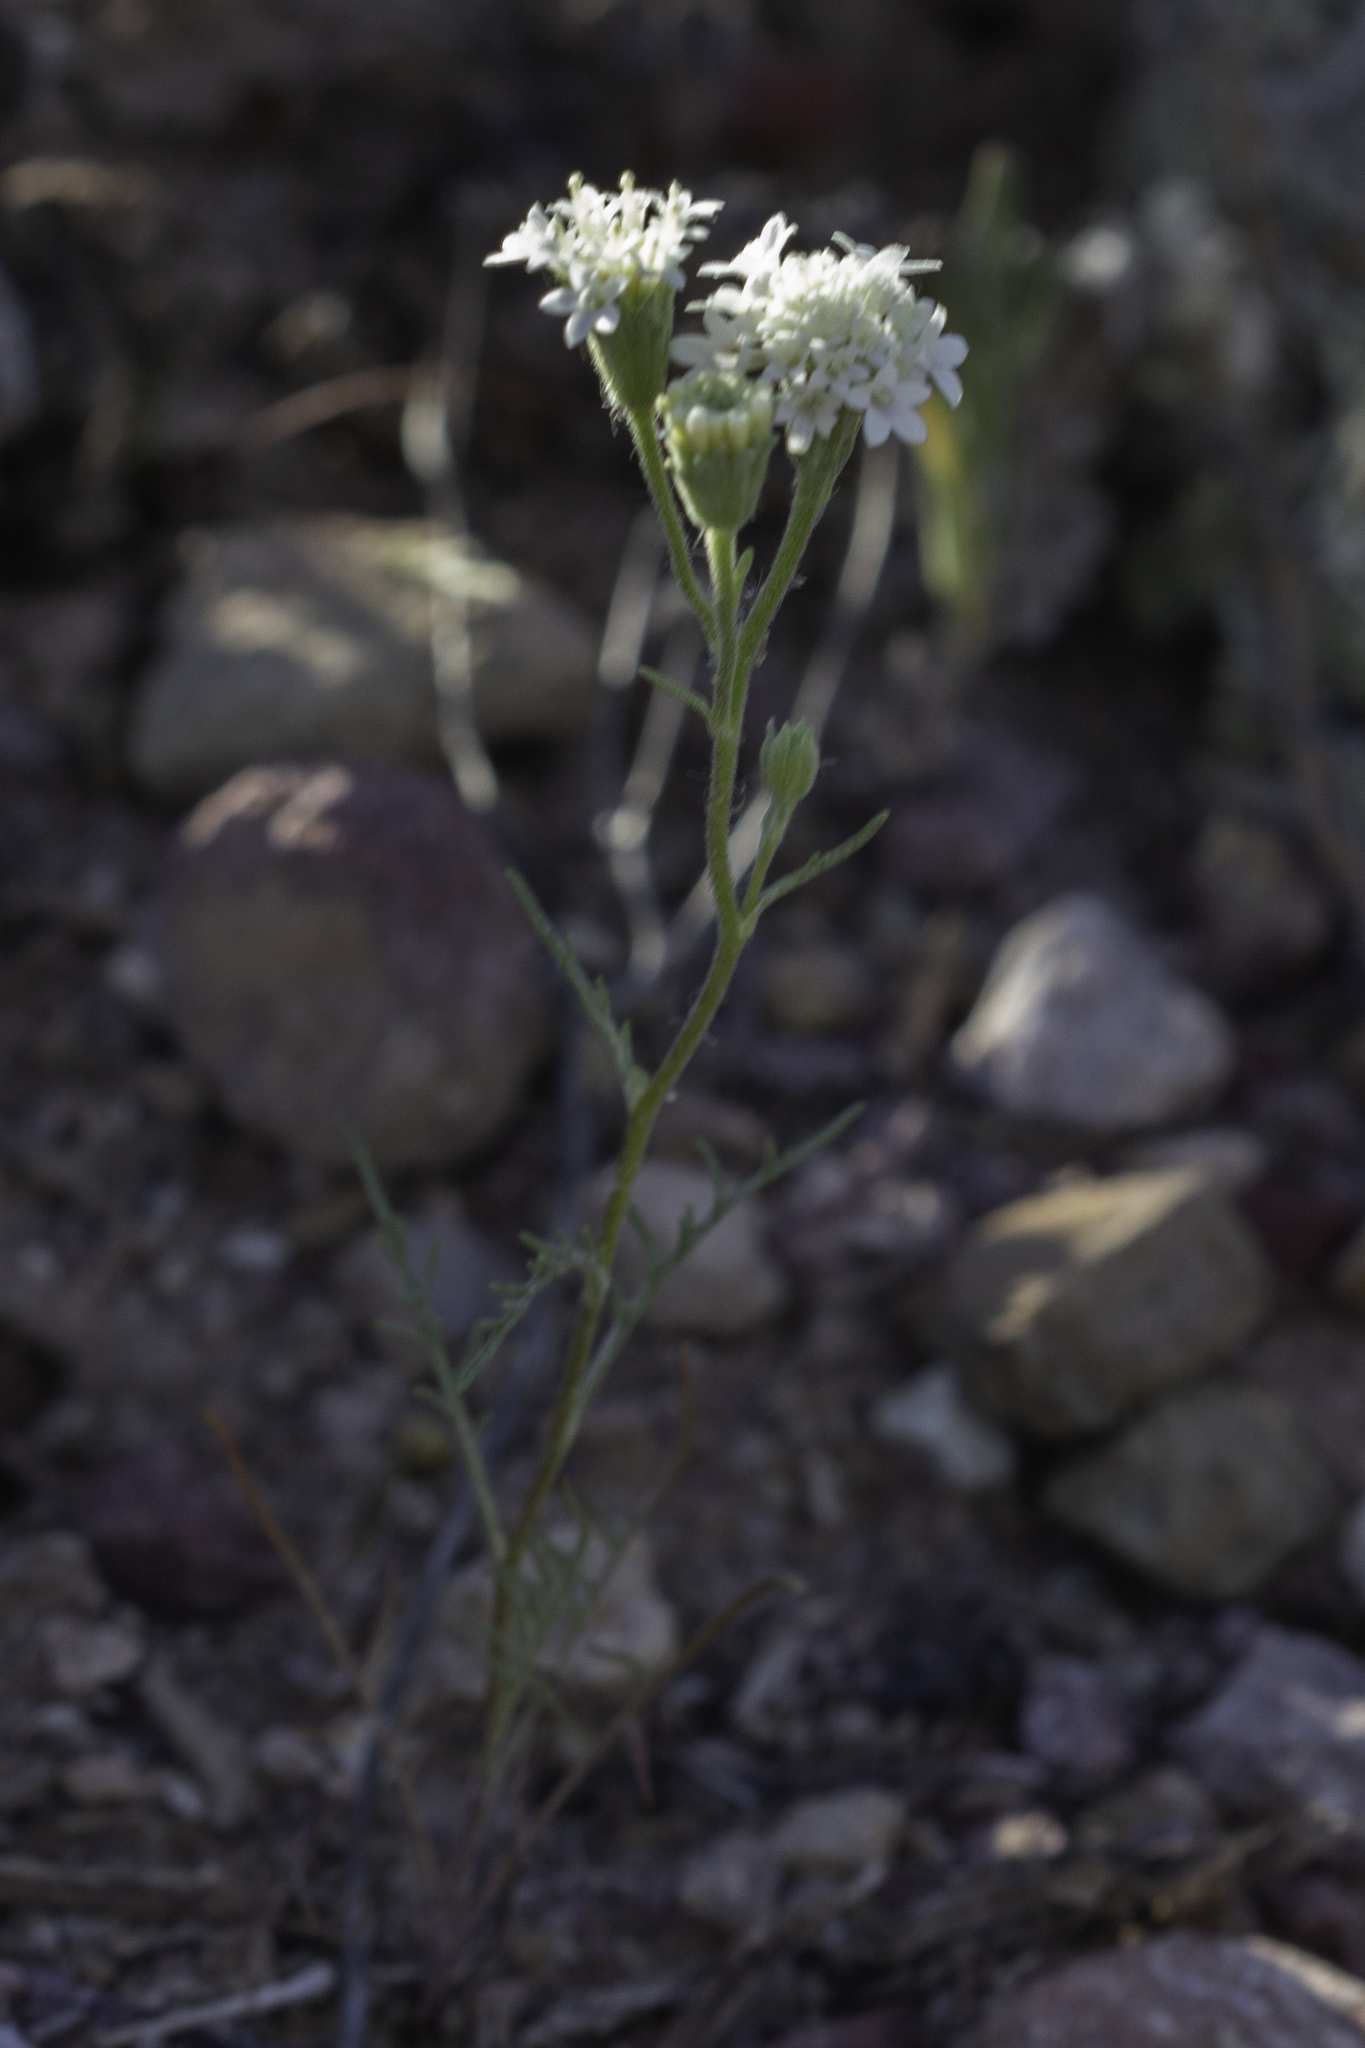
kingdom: Plantae
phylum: Tracheophyta
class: Magnoliopsida
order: Asterales
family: Asteraceae
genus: Chaenactis
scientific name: Chaenactis stevioides
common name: Desert pincushion
